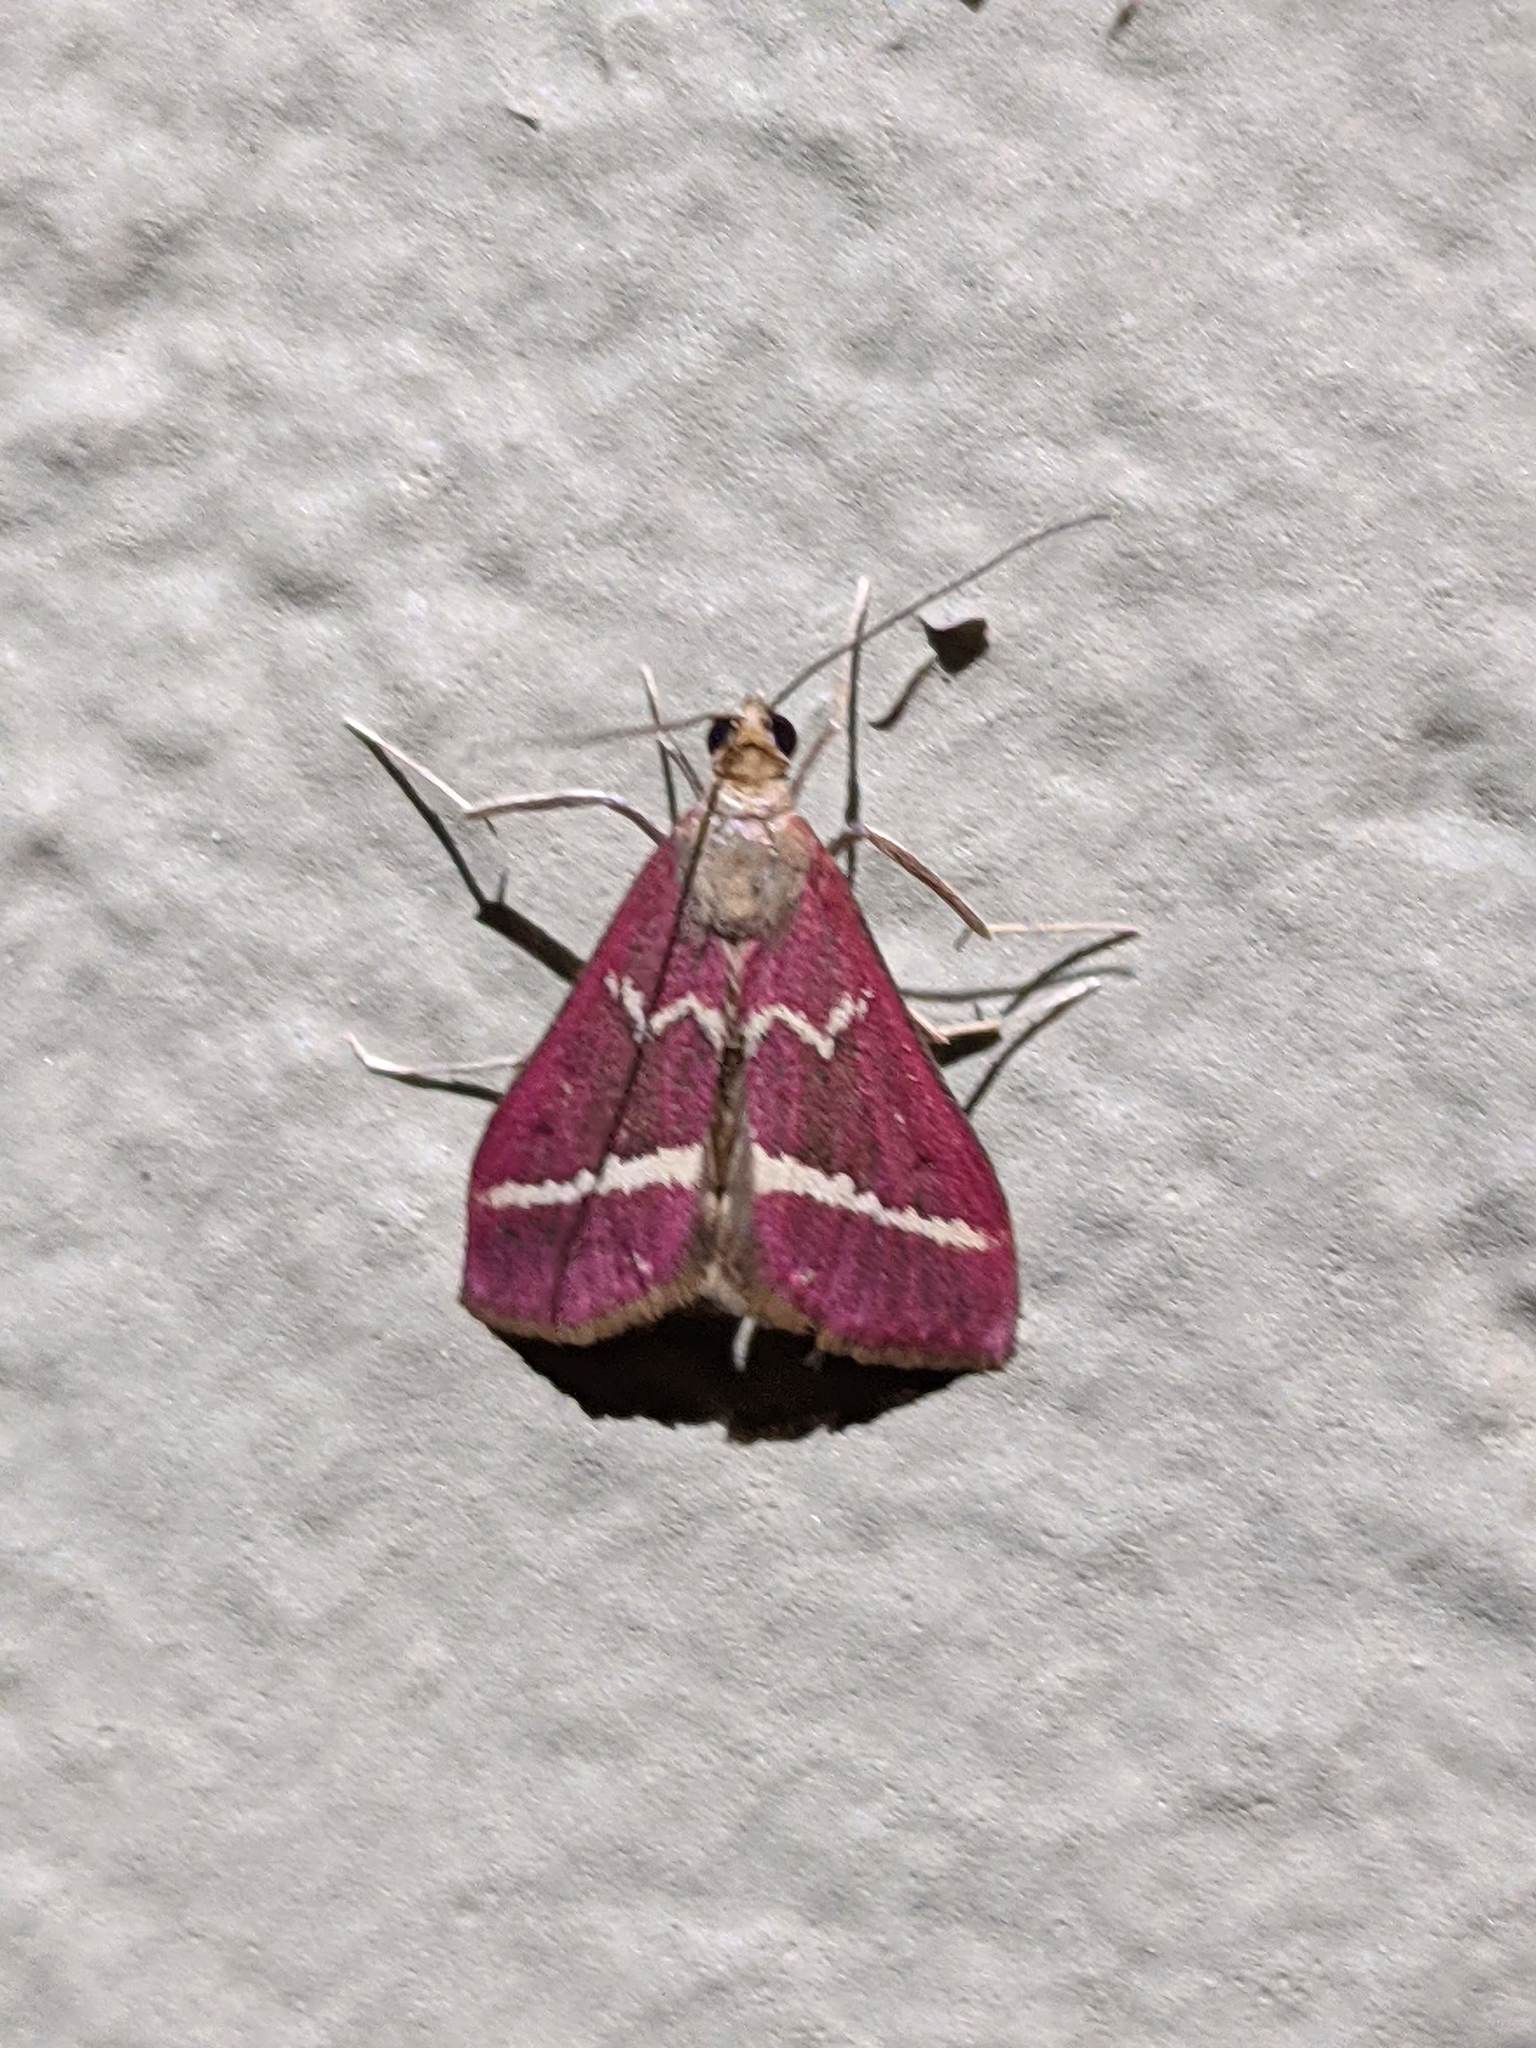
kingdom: Animalia
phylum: Arthropoda
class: Insecta
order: Lepidoptera
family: Crambidae
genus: Pyrausta
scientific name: Pyrausta volupialis
